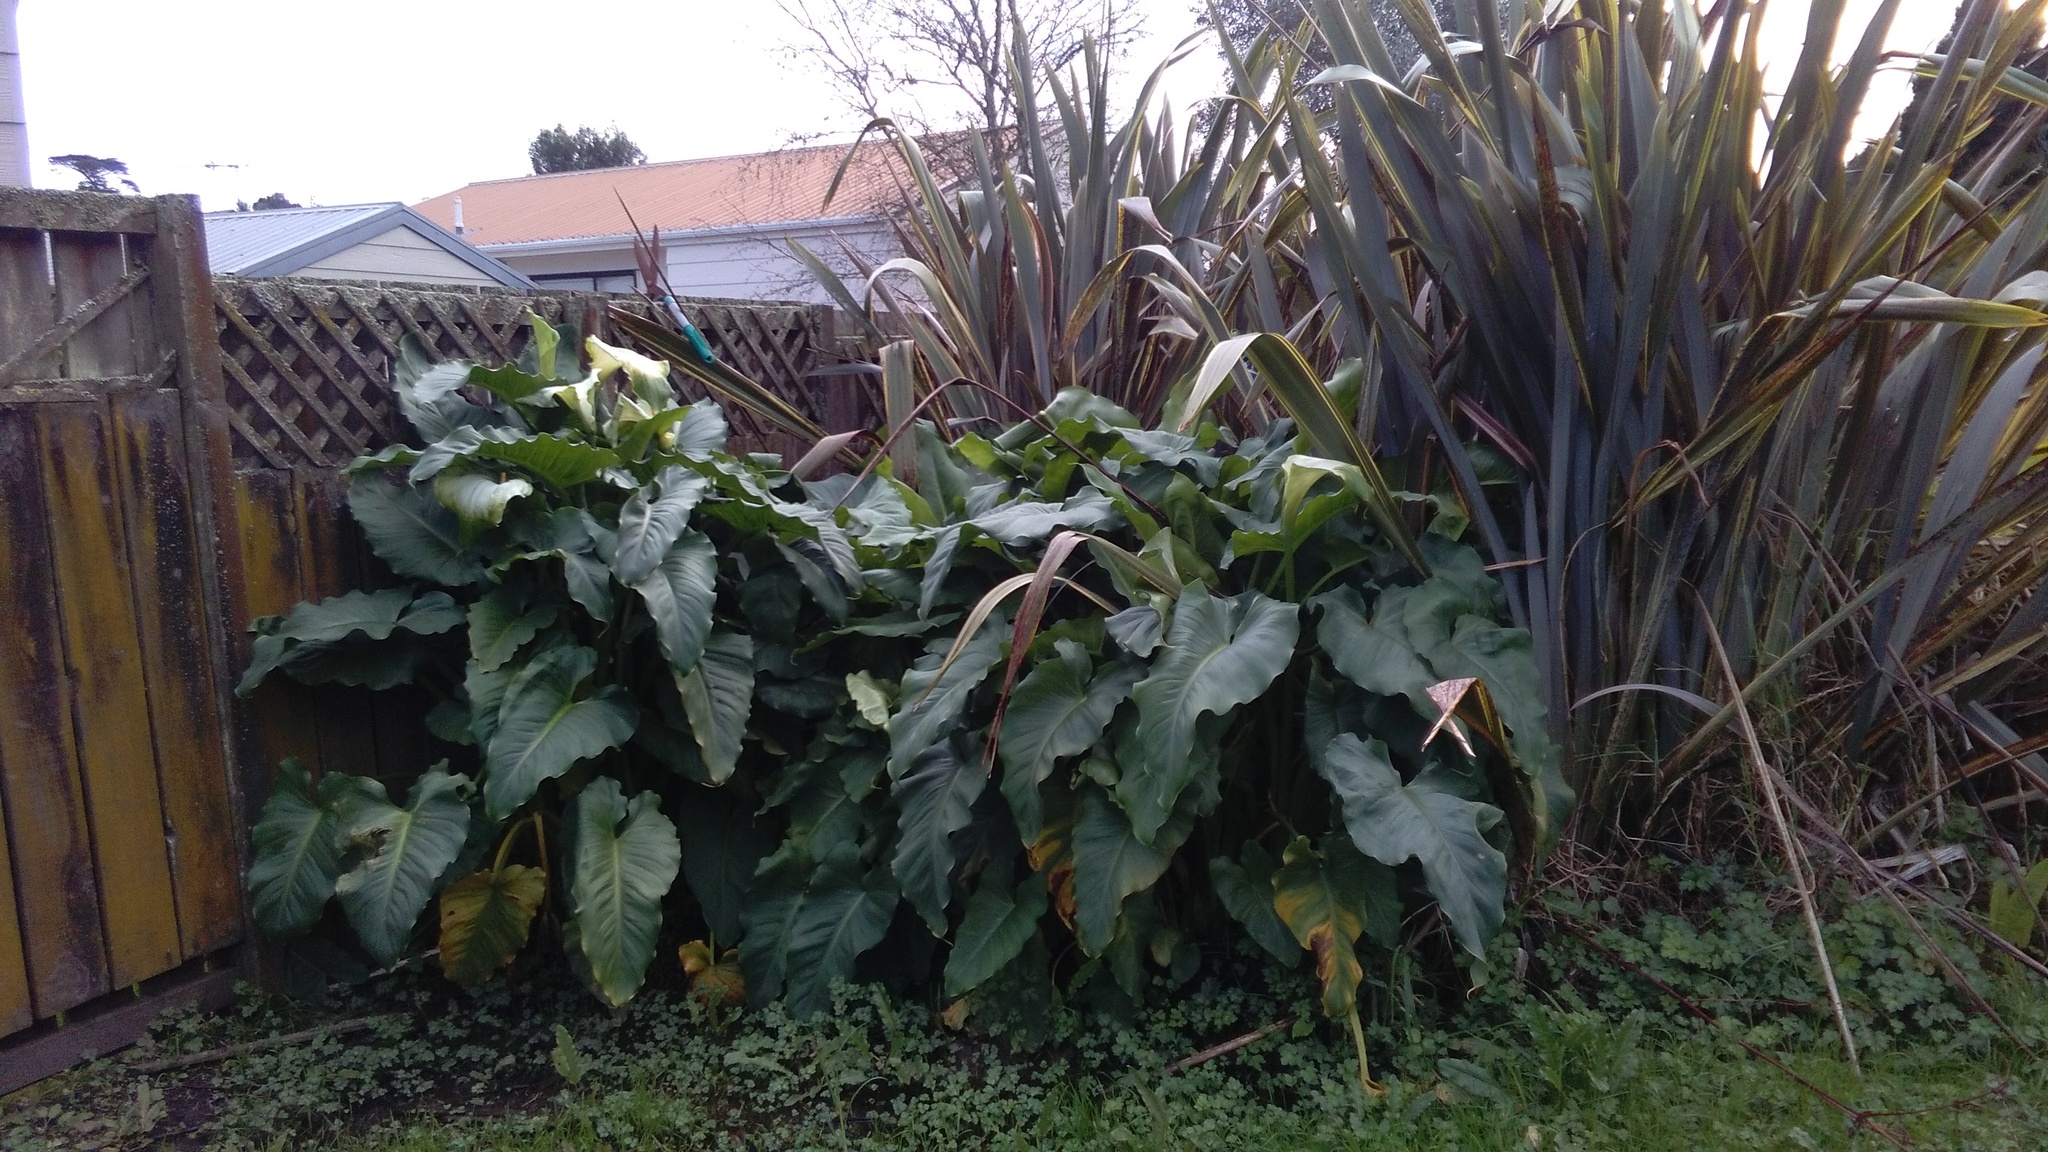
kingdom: Plantae
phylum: Tracheophyta
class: Liliopsida
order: Alismatales
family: Araceae
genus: Zantedeschia
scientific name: Zantedeschia aethiopica
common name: Altar-lily
